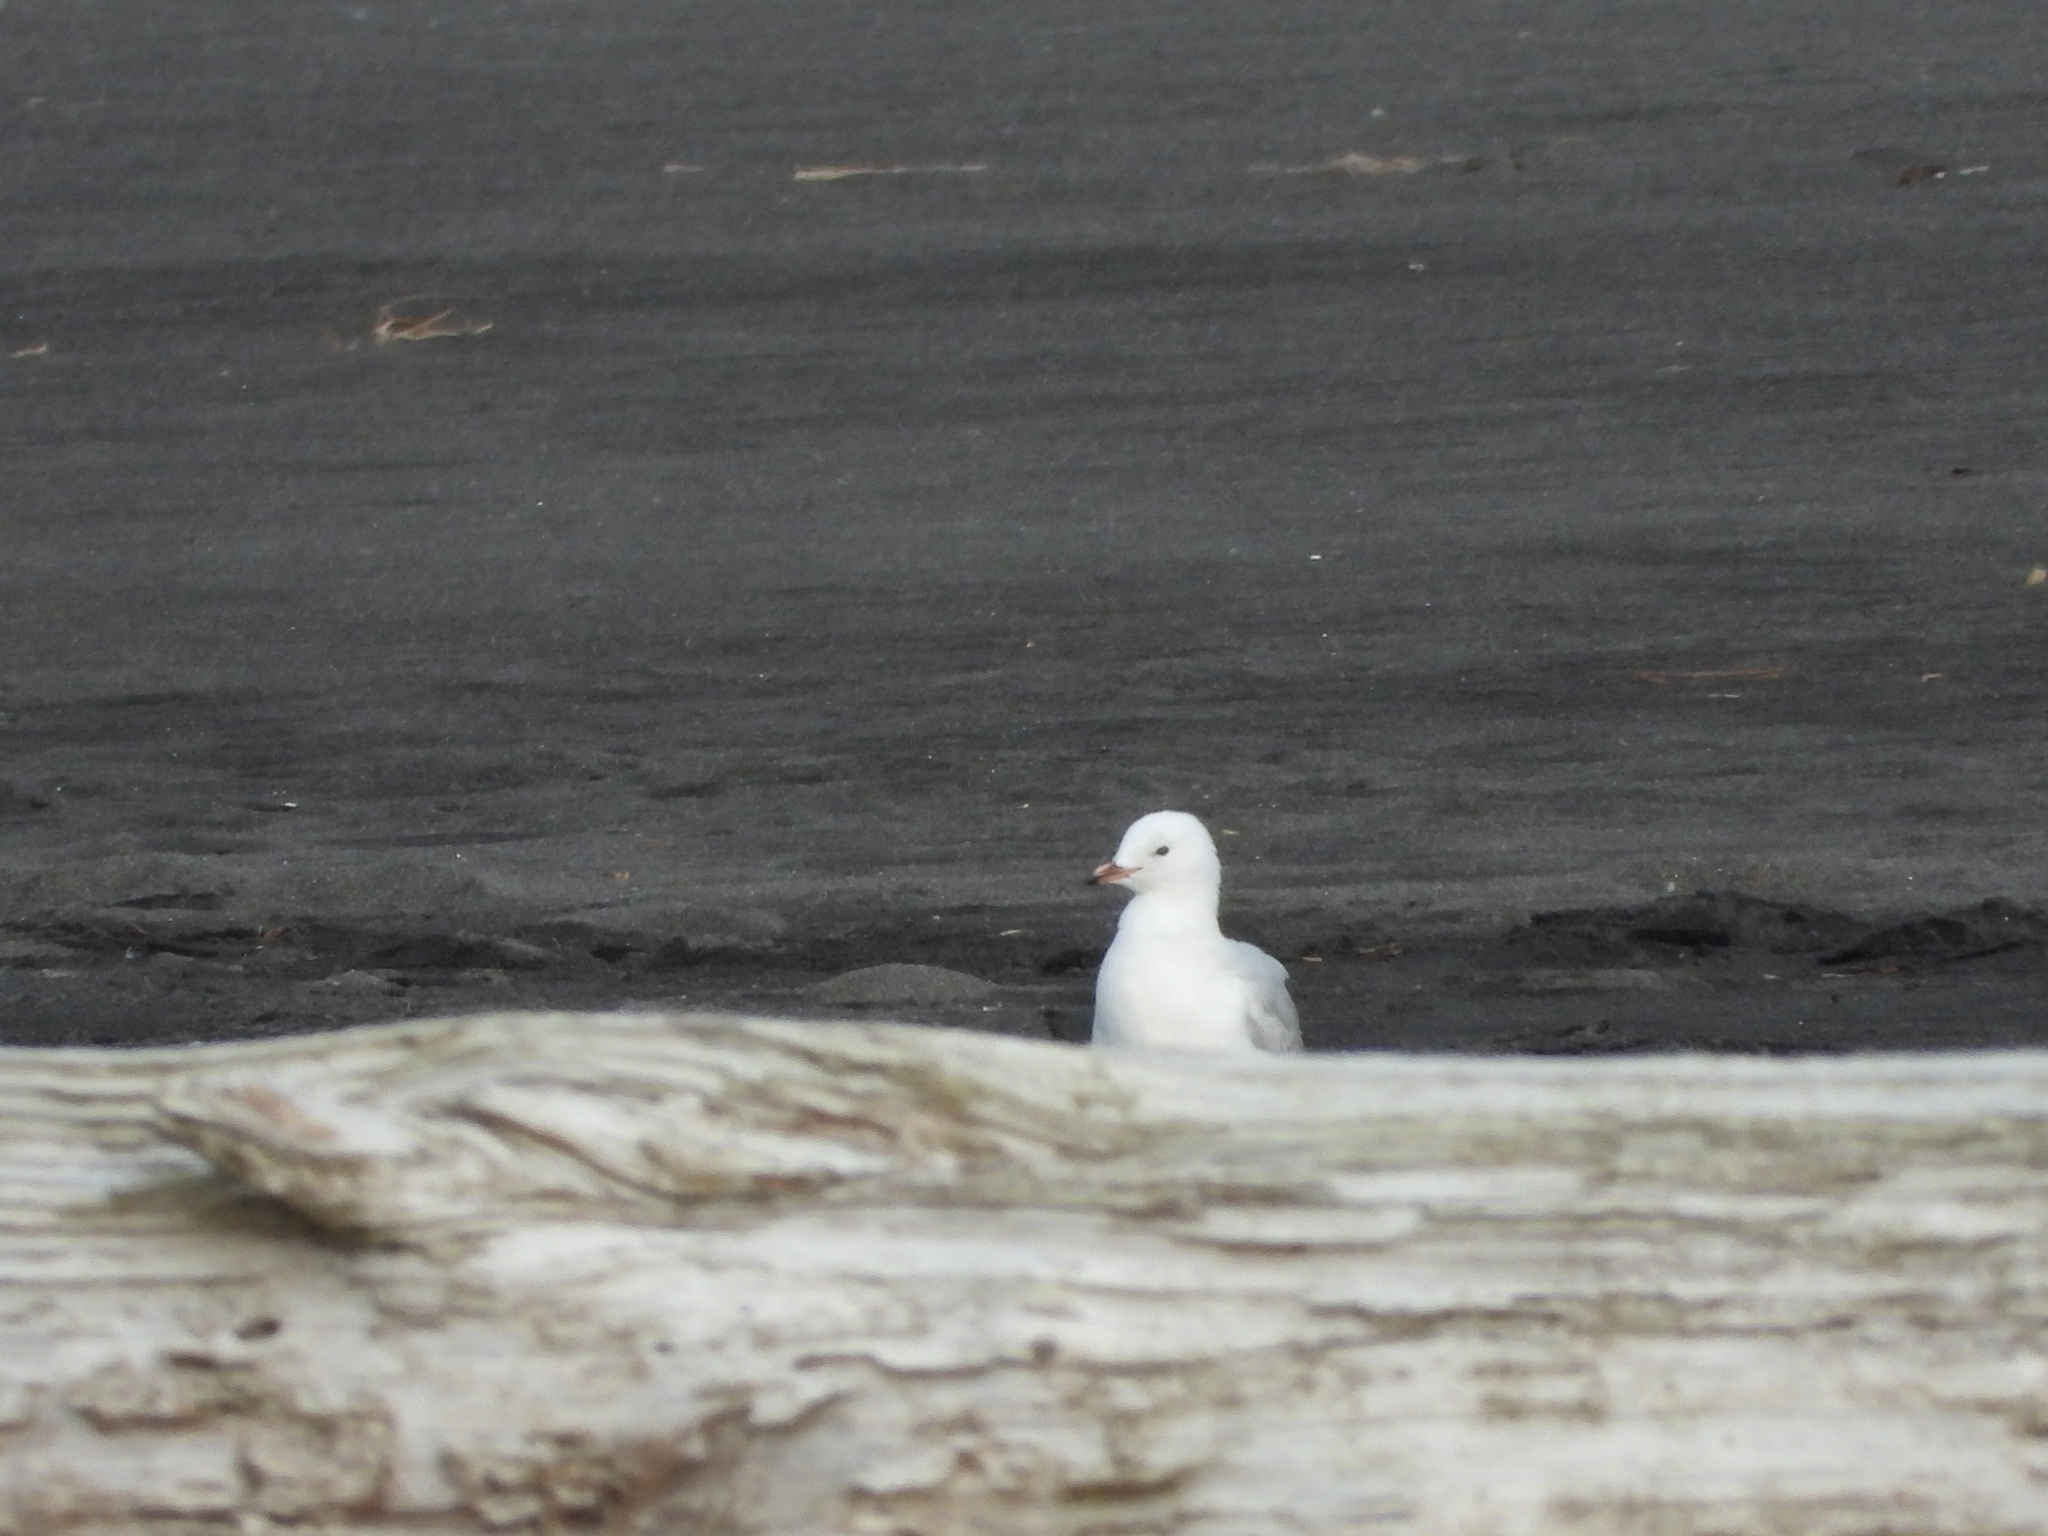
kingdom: Animalia
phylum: Chordata
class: Aves
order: Charadriiformes
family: Laridae
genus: Chroicocephalus
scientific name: Chroicocephalus novaehollandiae
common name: Silver gull
